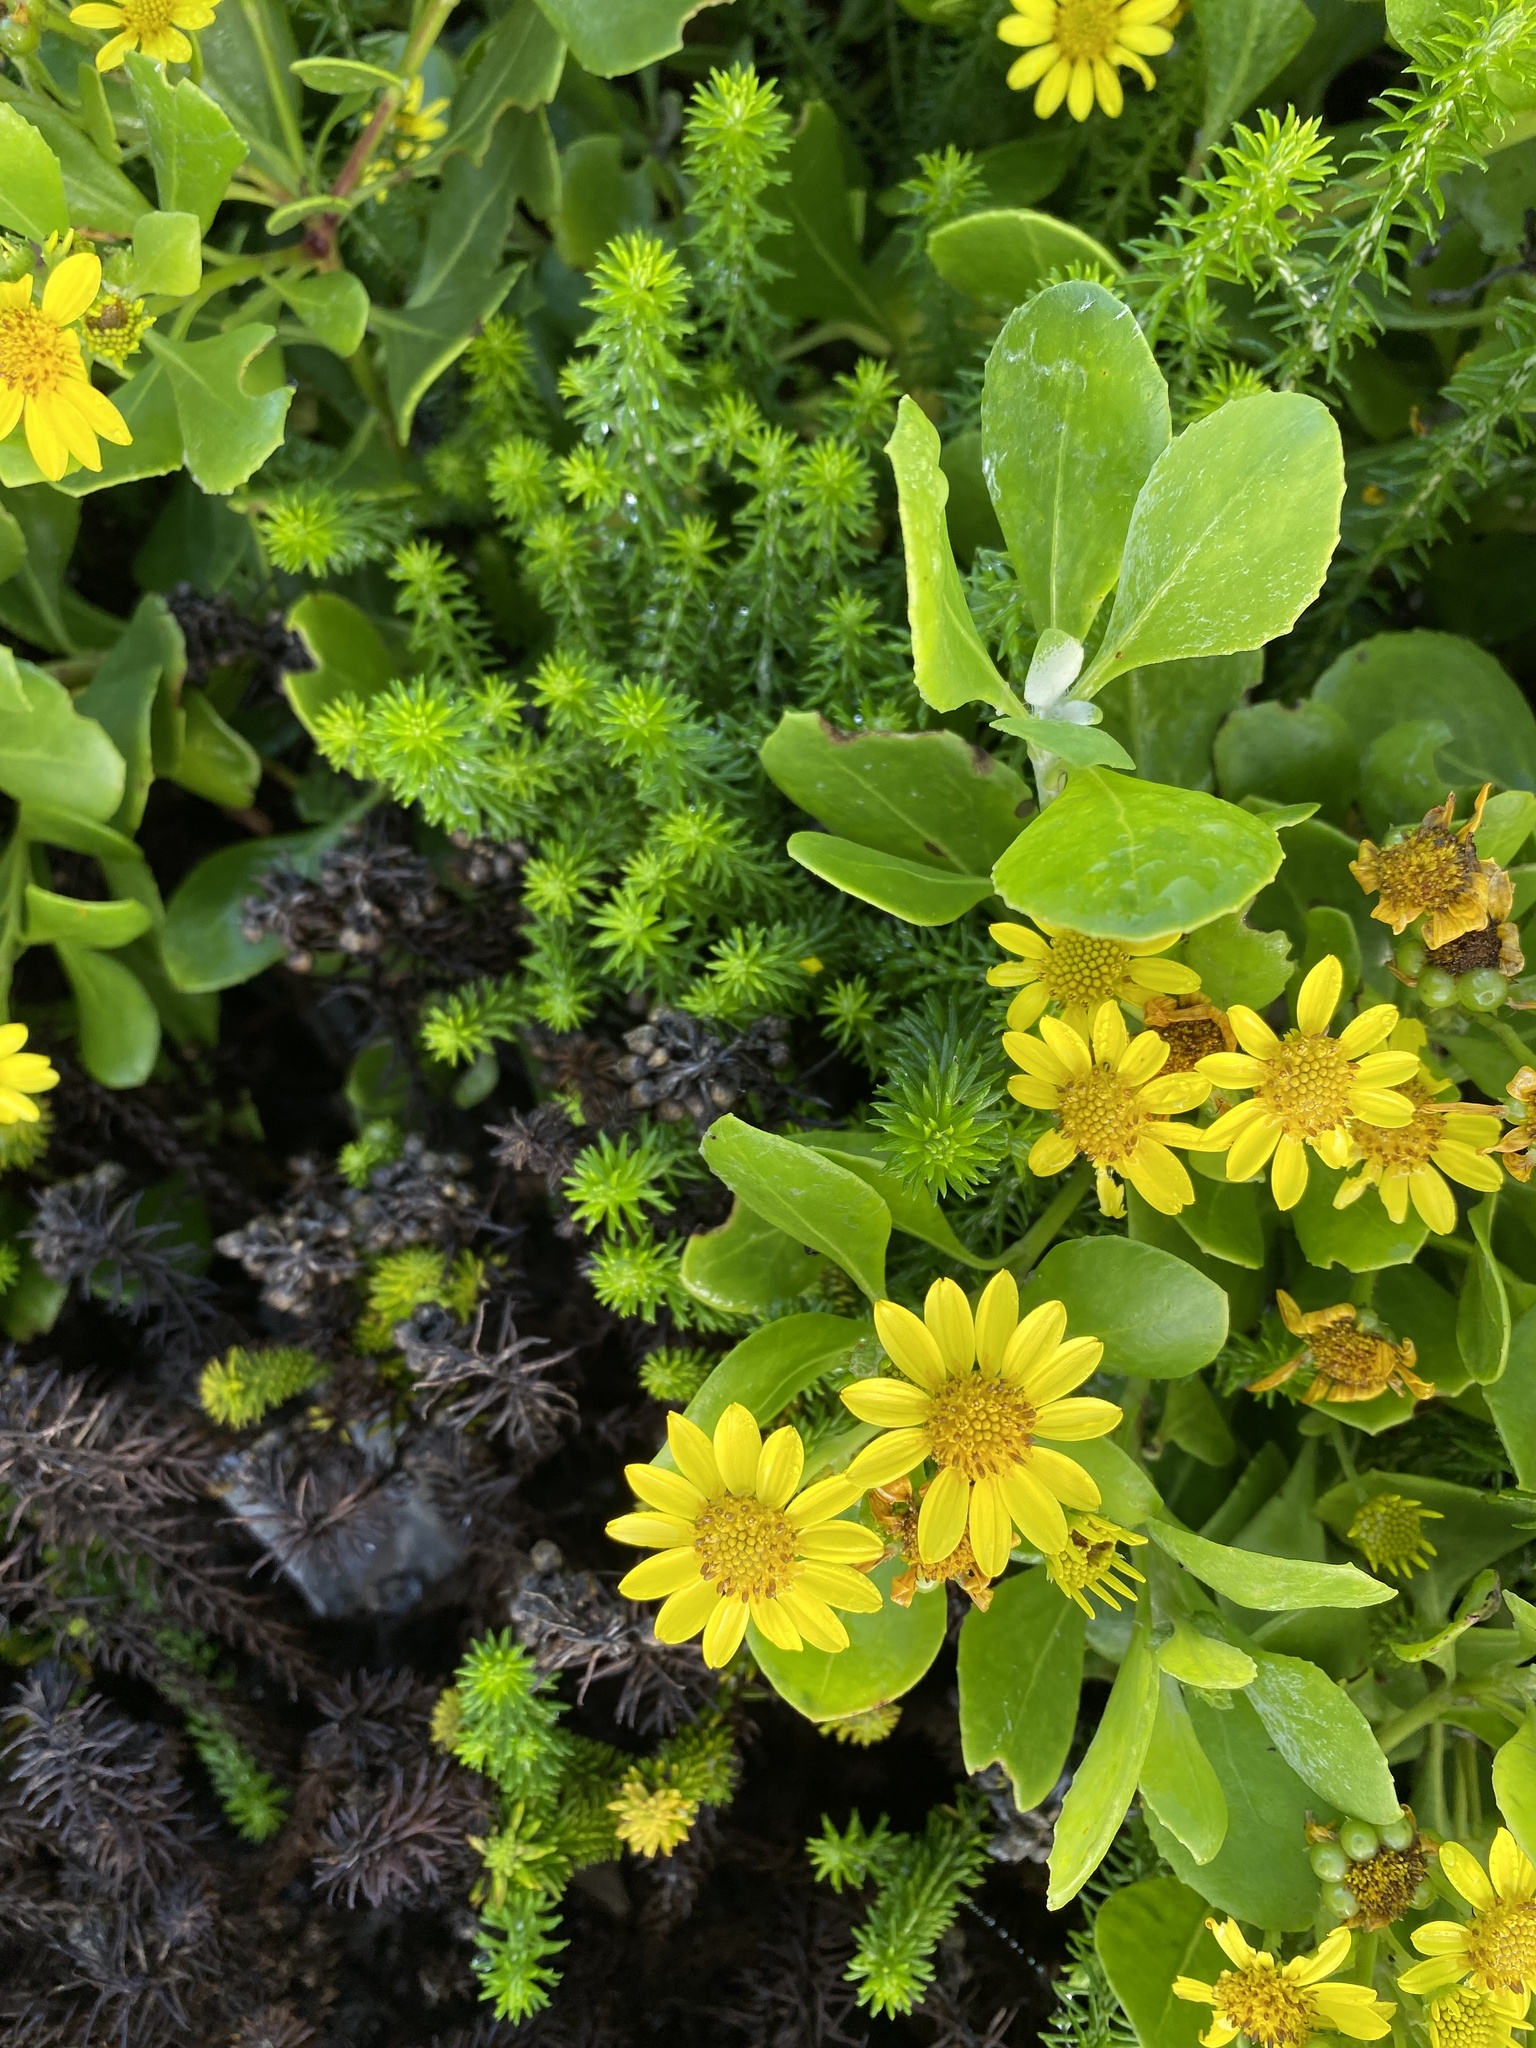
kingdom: Plantae
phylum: Tracheophyta
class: Magnoliopsida
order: Asterales
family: Asteraceae
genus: Osteospermum
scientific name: Osteospermum moniliferum
